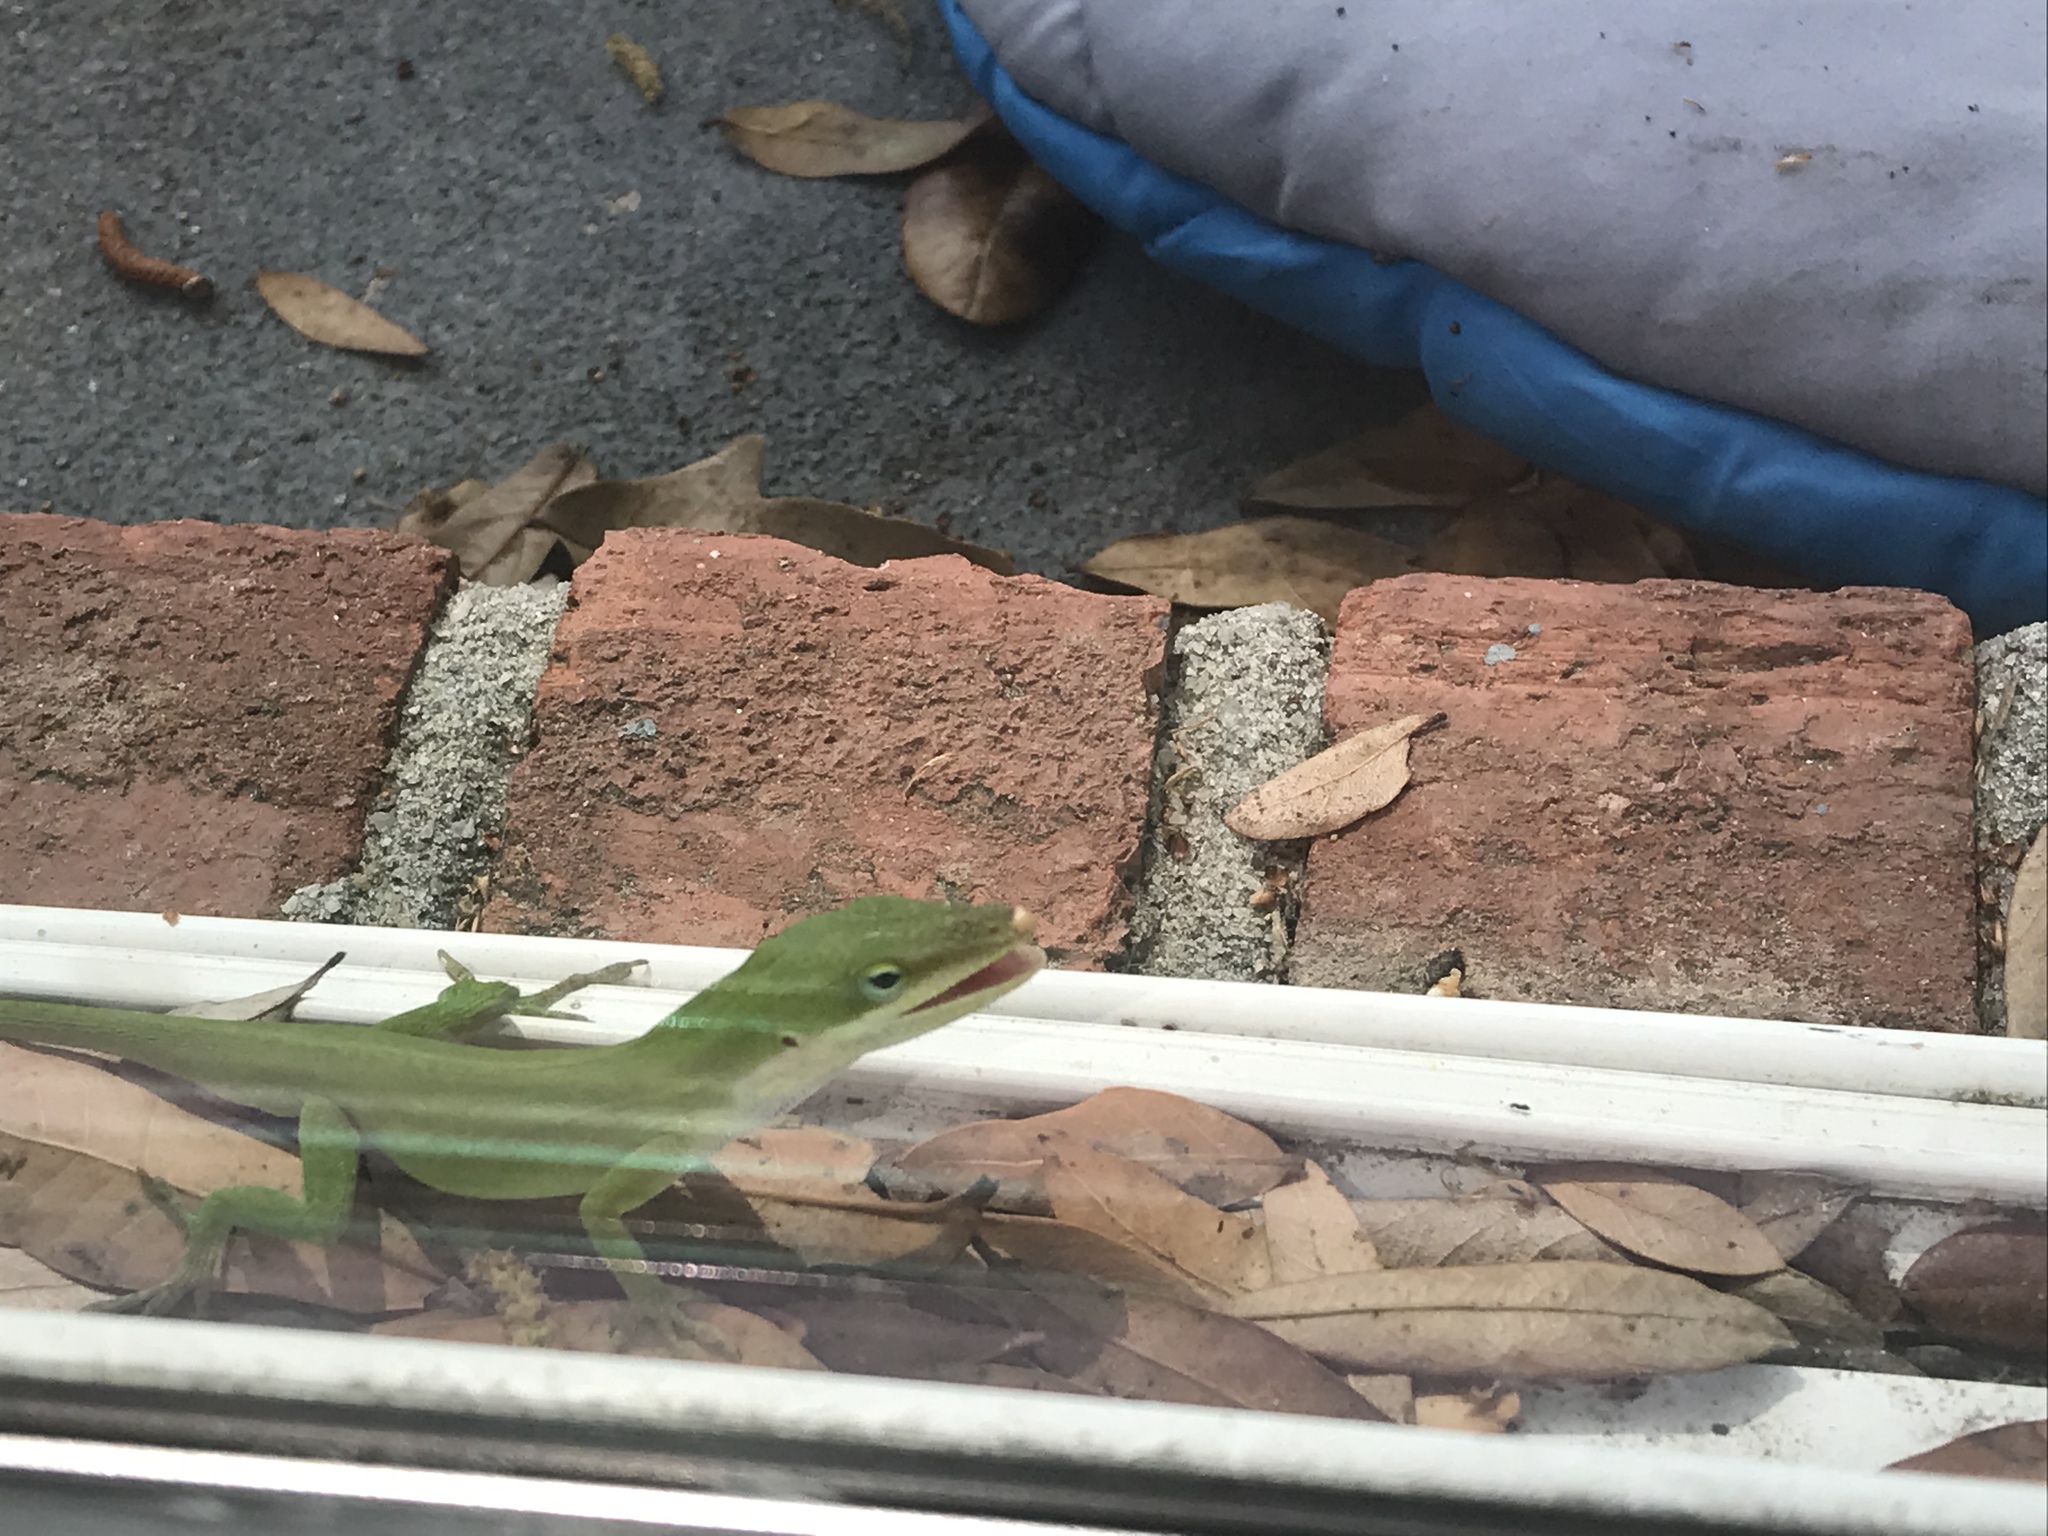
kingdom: Animalia
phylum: Chordata
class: Squamata
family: Dactyloidae
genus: Anolis
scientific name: Anolis carolinensis
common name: Green anole
